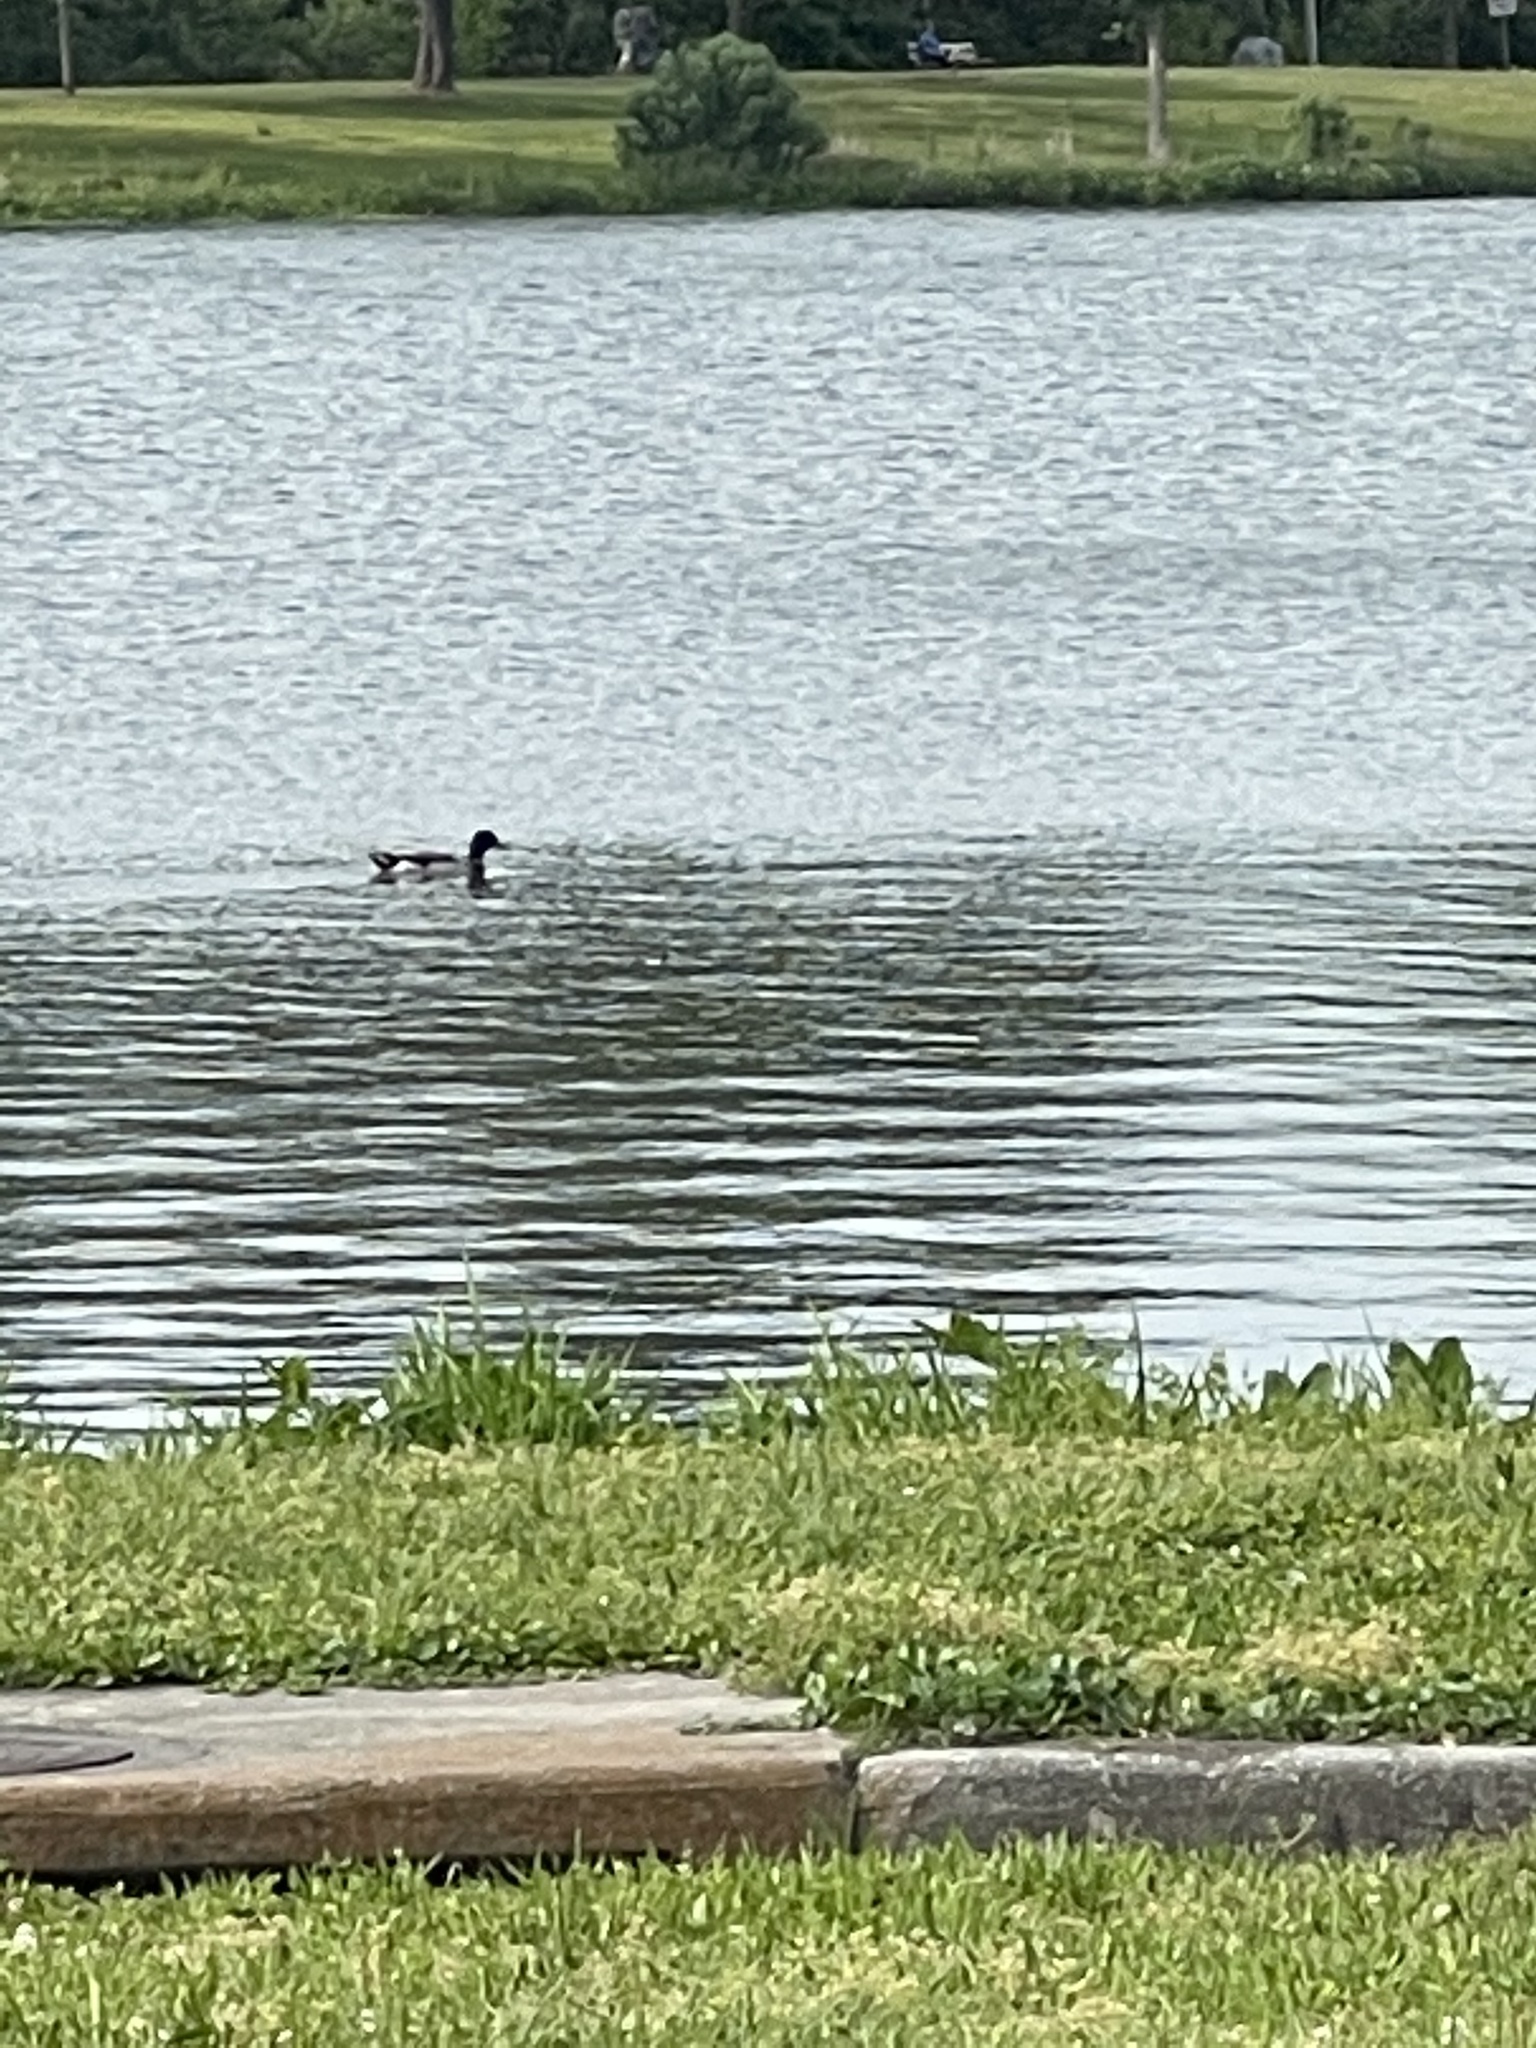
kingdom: Animalia
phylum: Chordata
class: Aves
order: Anseriformes
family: Anatidae
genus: Anas
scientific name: Anas platyrhynchos
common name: Mallard
